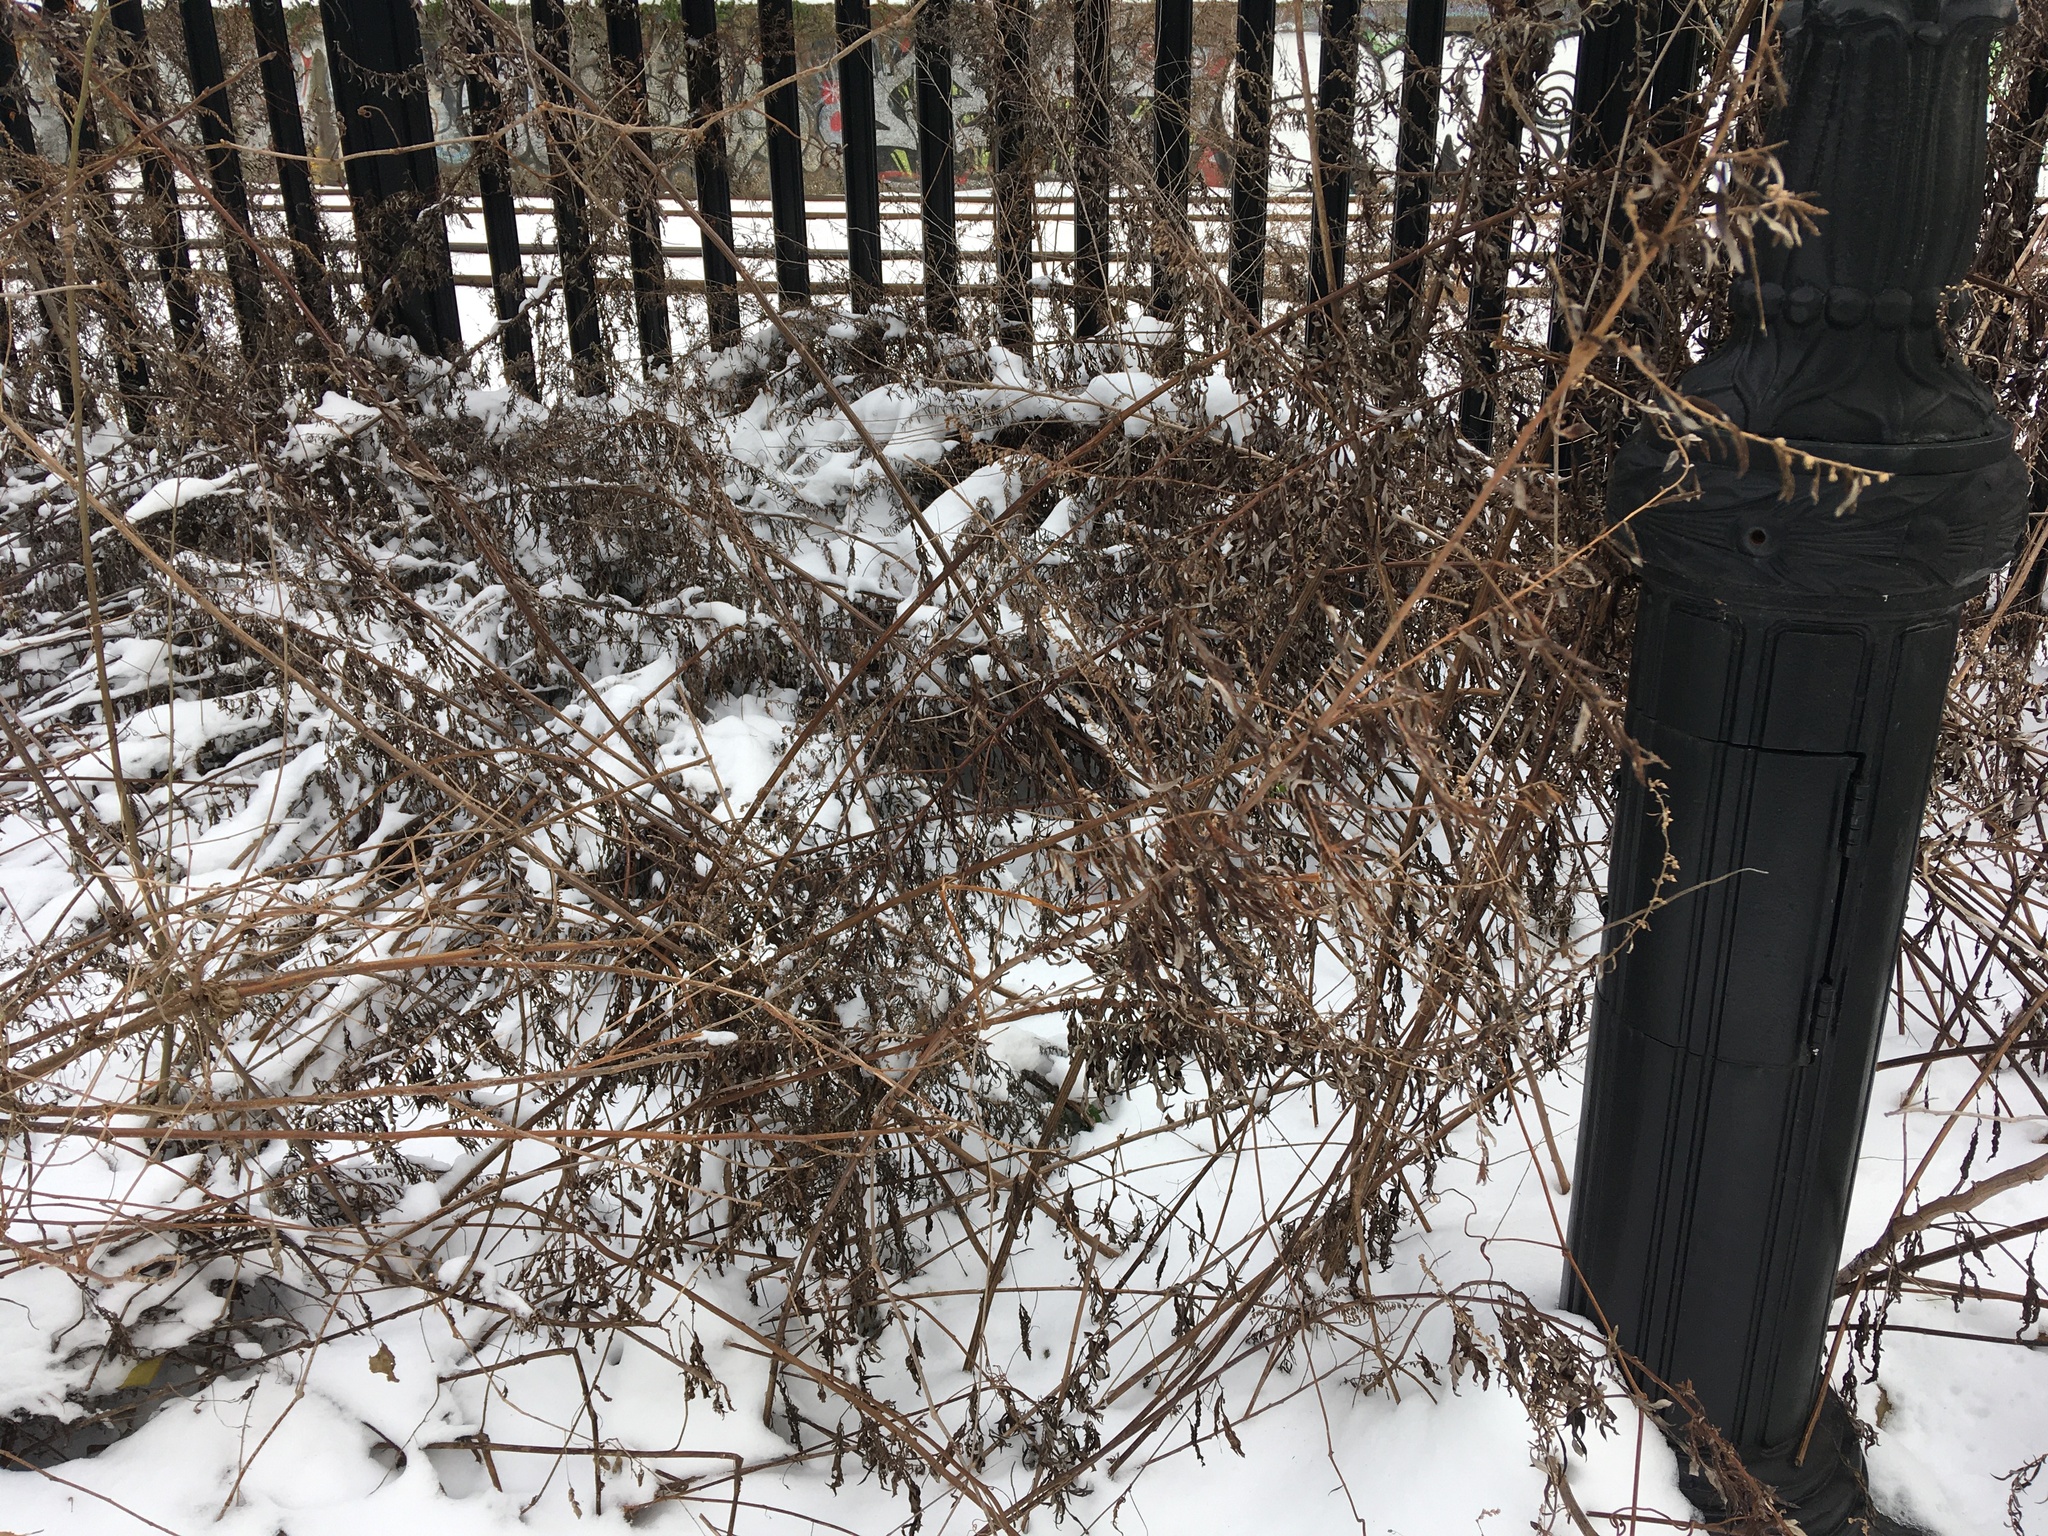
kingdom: Plantae
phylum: Tracheophyta
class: Magnoliopsida
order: Asterales
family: Asteraceae
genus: Artemisia
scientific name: Artemisia vulgaris
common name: Mugwort
